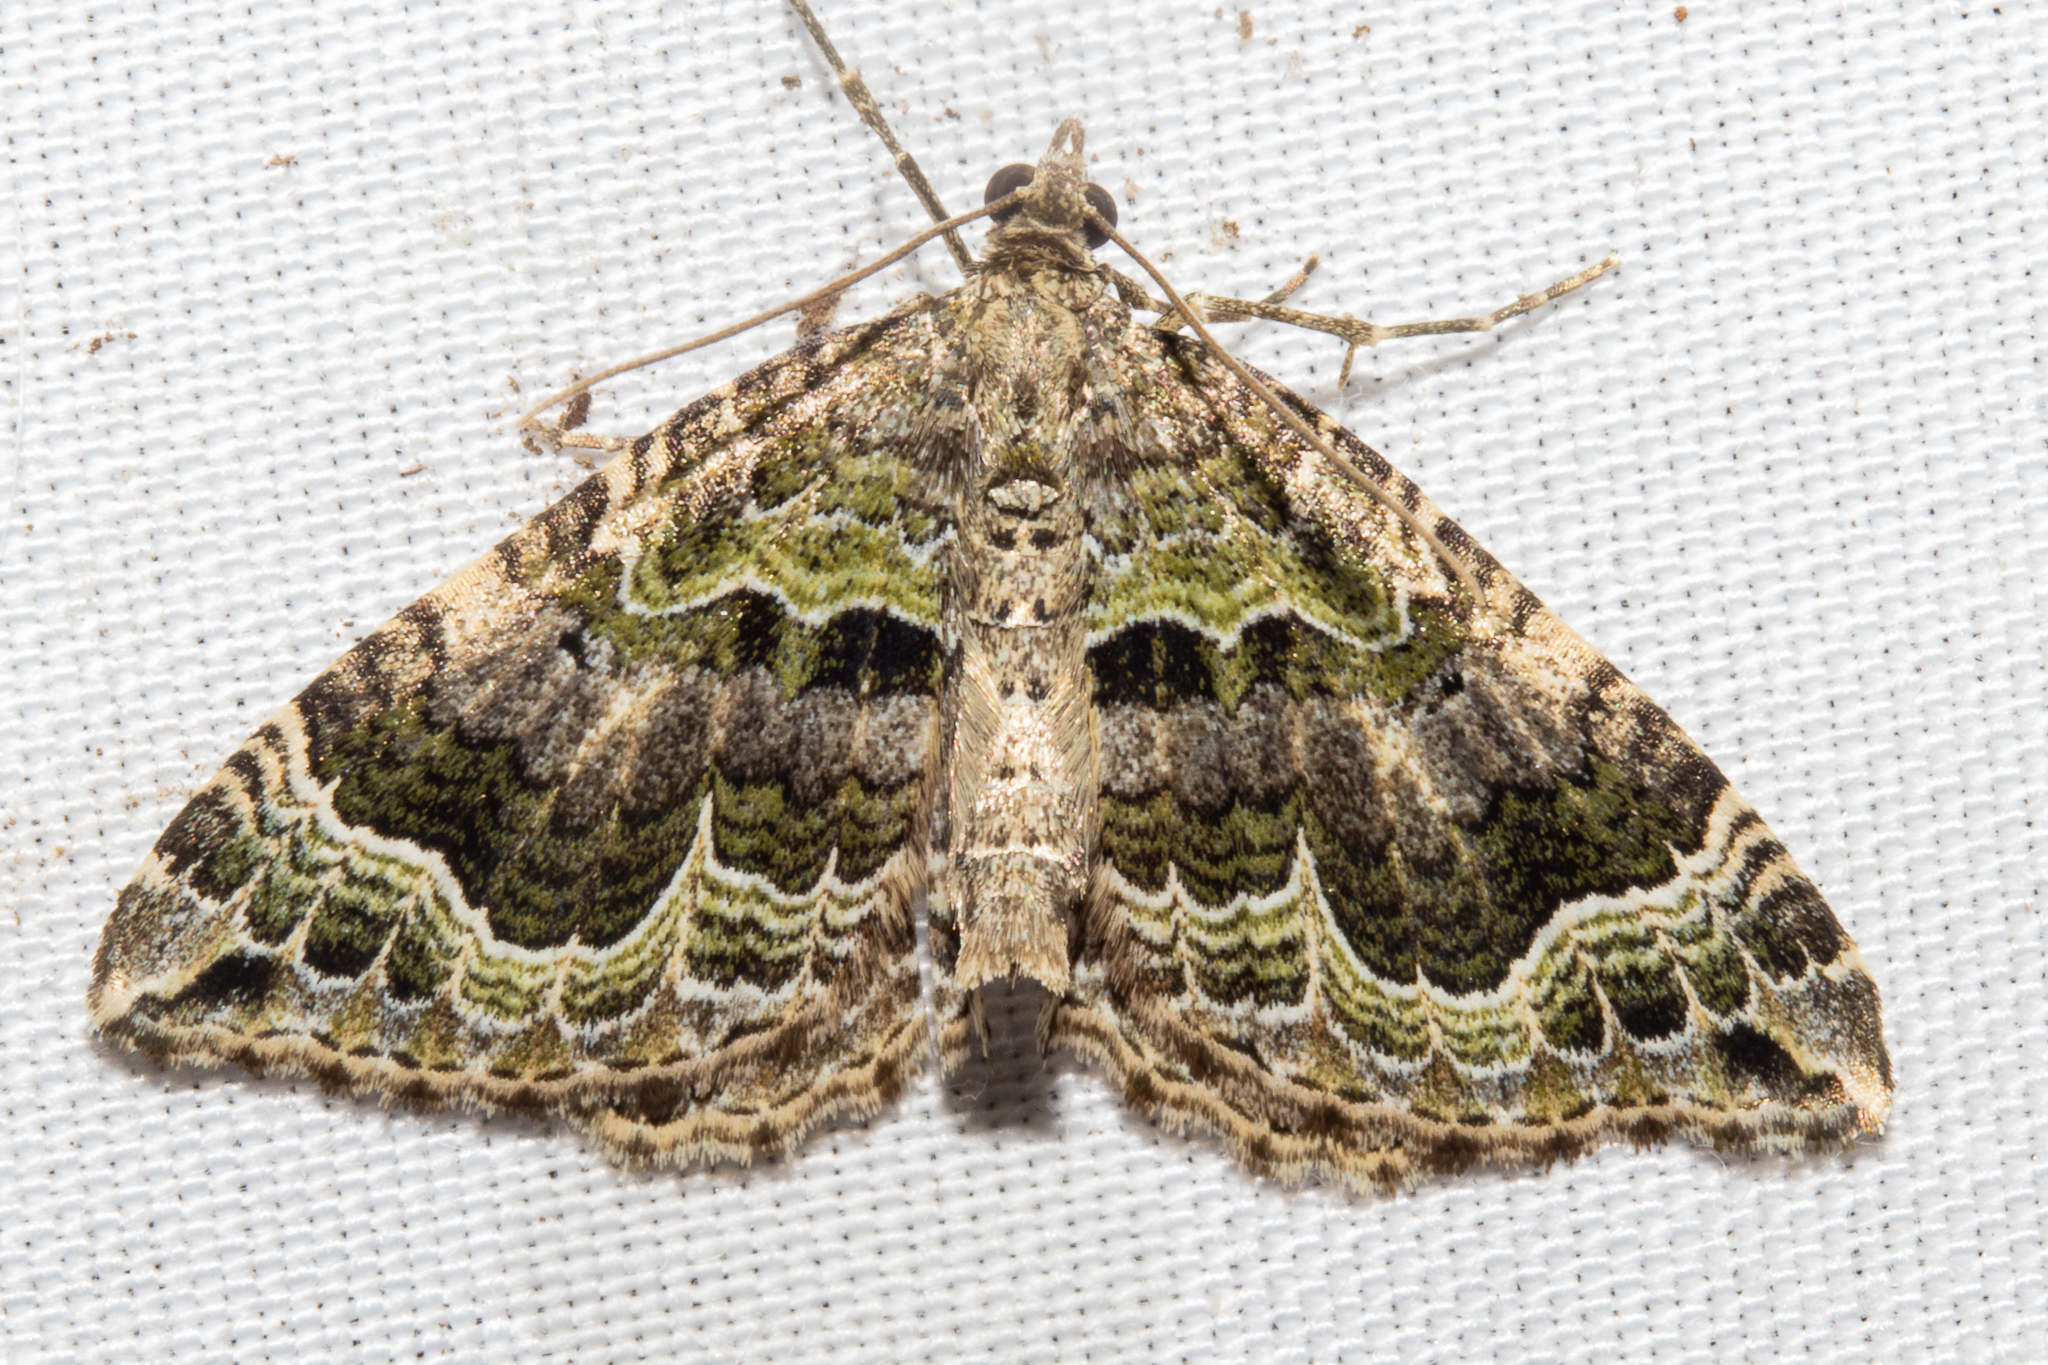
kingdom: Animalia
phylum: Arthropoda
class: Insecta
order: Lepidoptera
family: Geometridae
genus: Hydriomena
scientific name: Hydriomena rixata
